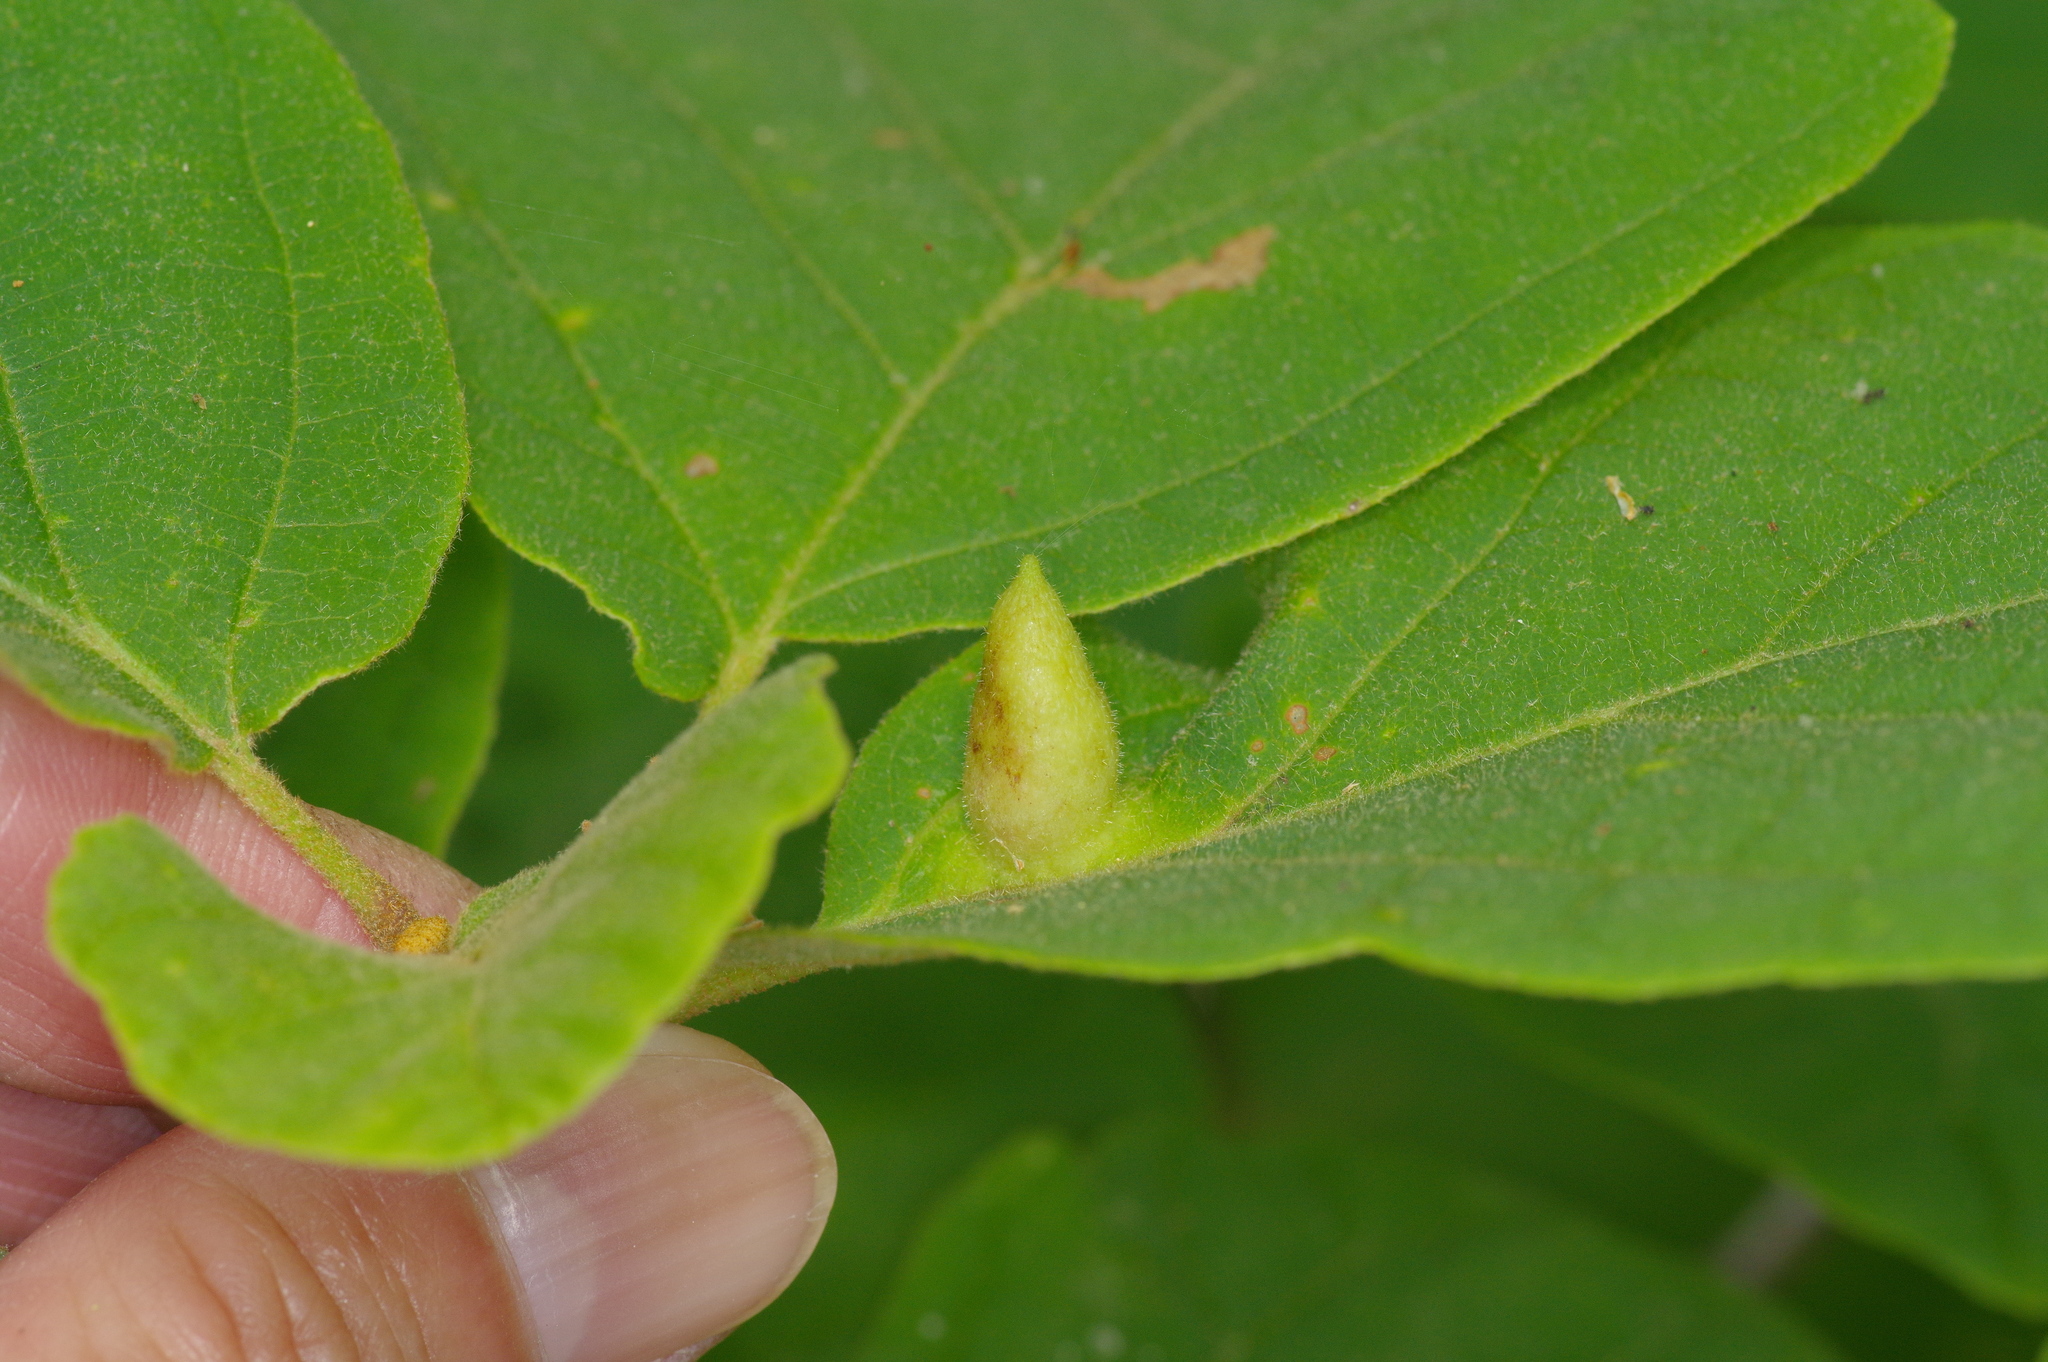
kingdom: Animalia
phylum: Arthropoda
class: Insecta
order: Hemiptera
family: Aphididae
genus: Hormaphis
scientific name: Hormaphis hamamelidis
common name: Witch-hazel cone gall aphid
